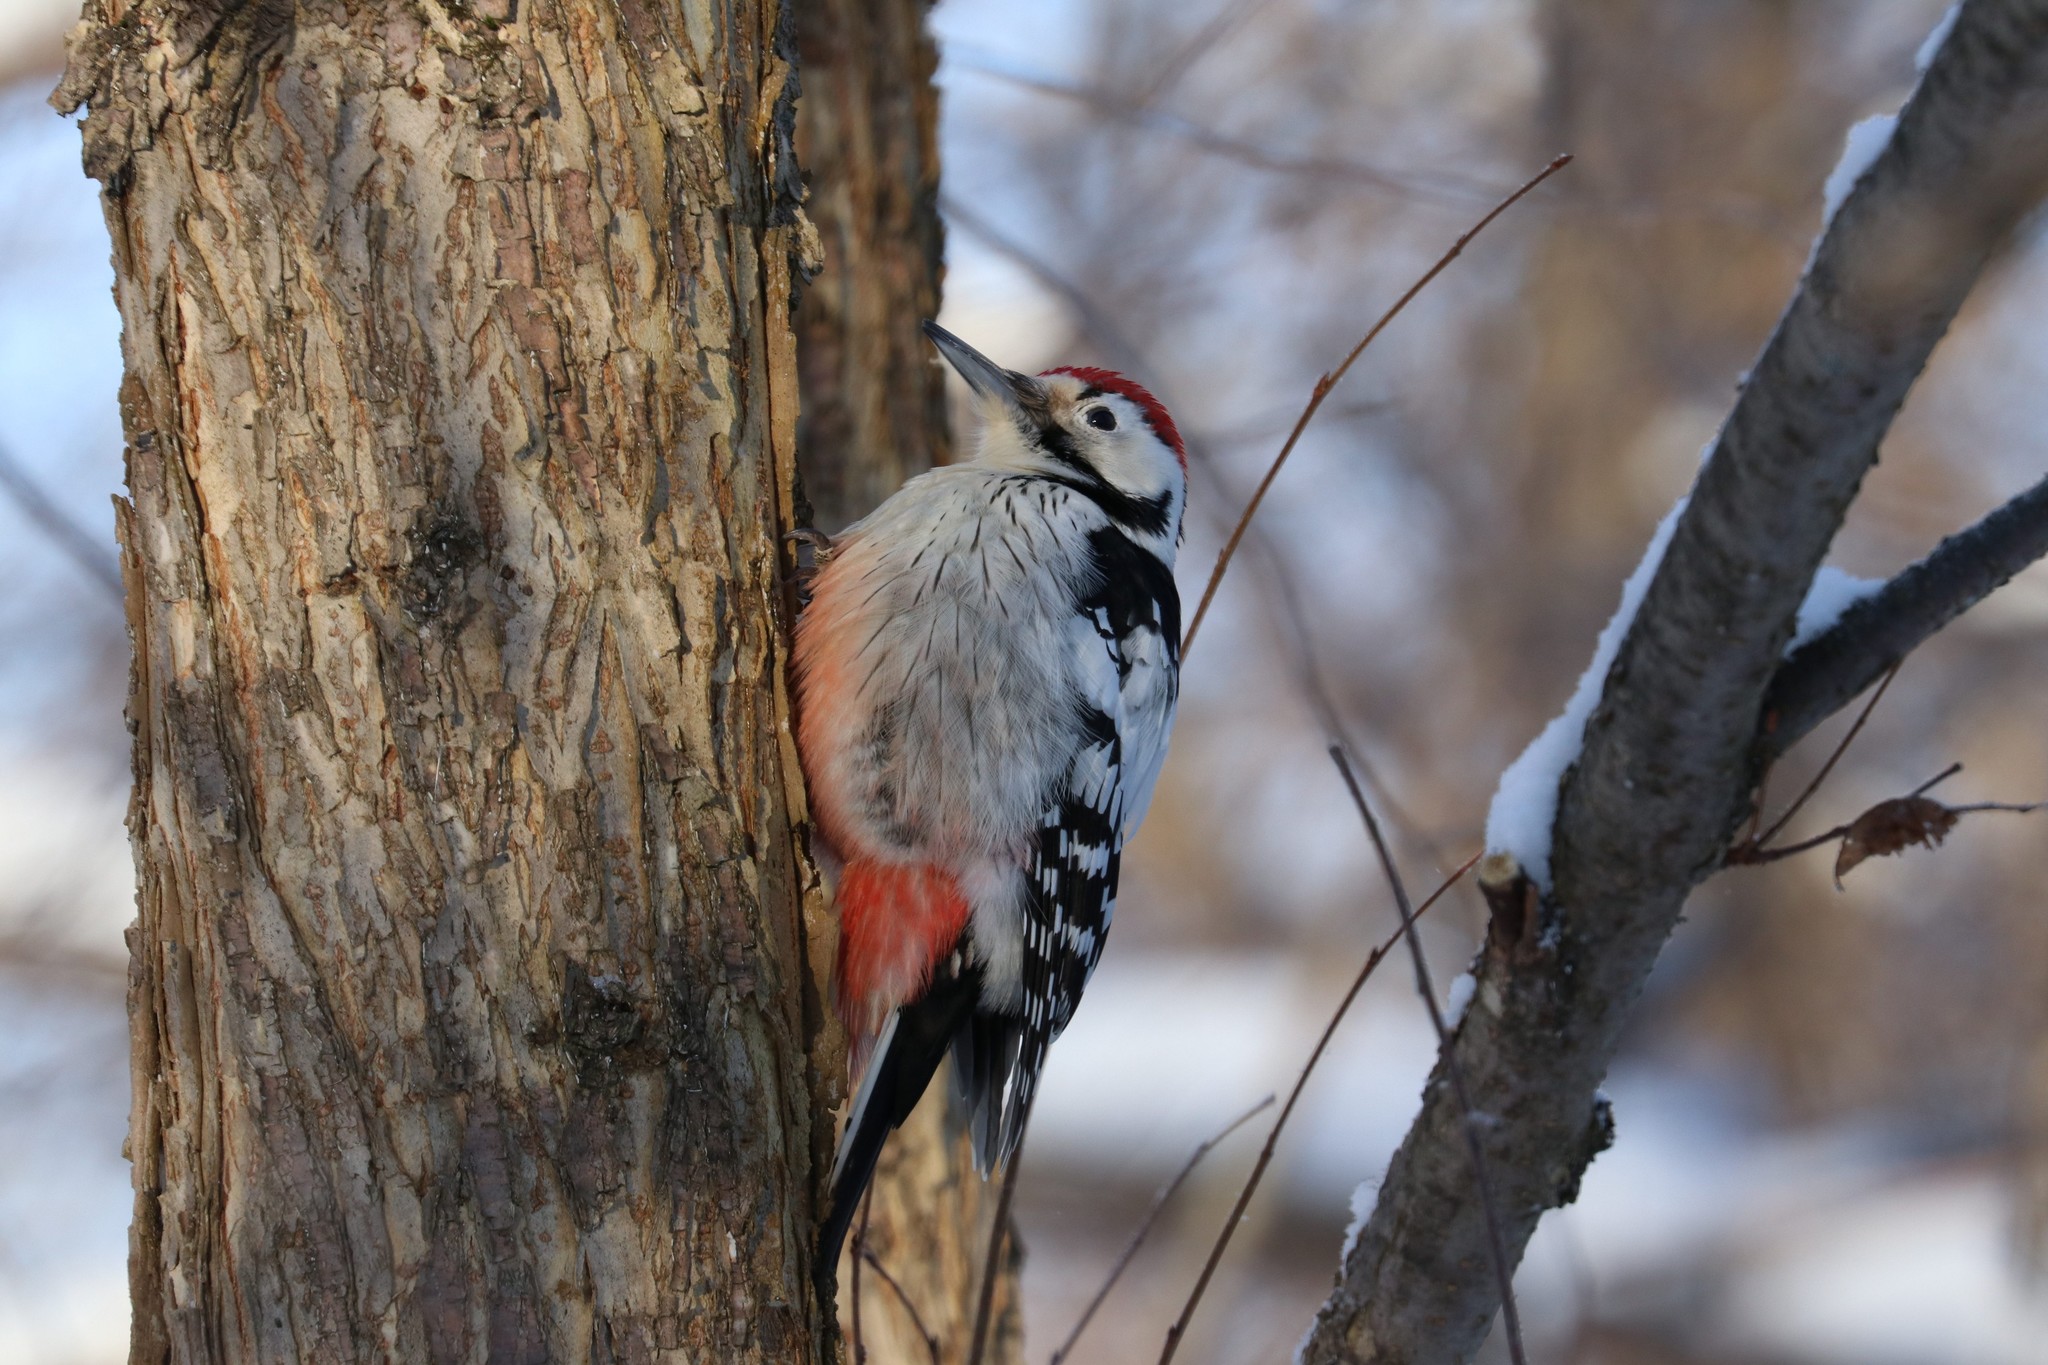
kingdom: Animalia
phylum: Chordata
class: Aves
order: Piciformes
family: Picidae
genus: Dendrocopos
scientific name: Dendrocopos leucotos
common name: White-backed woodpecker
